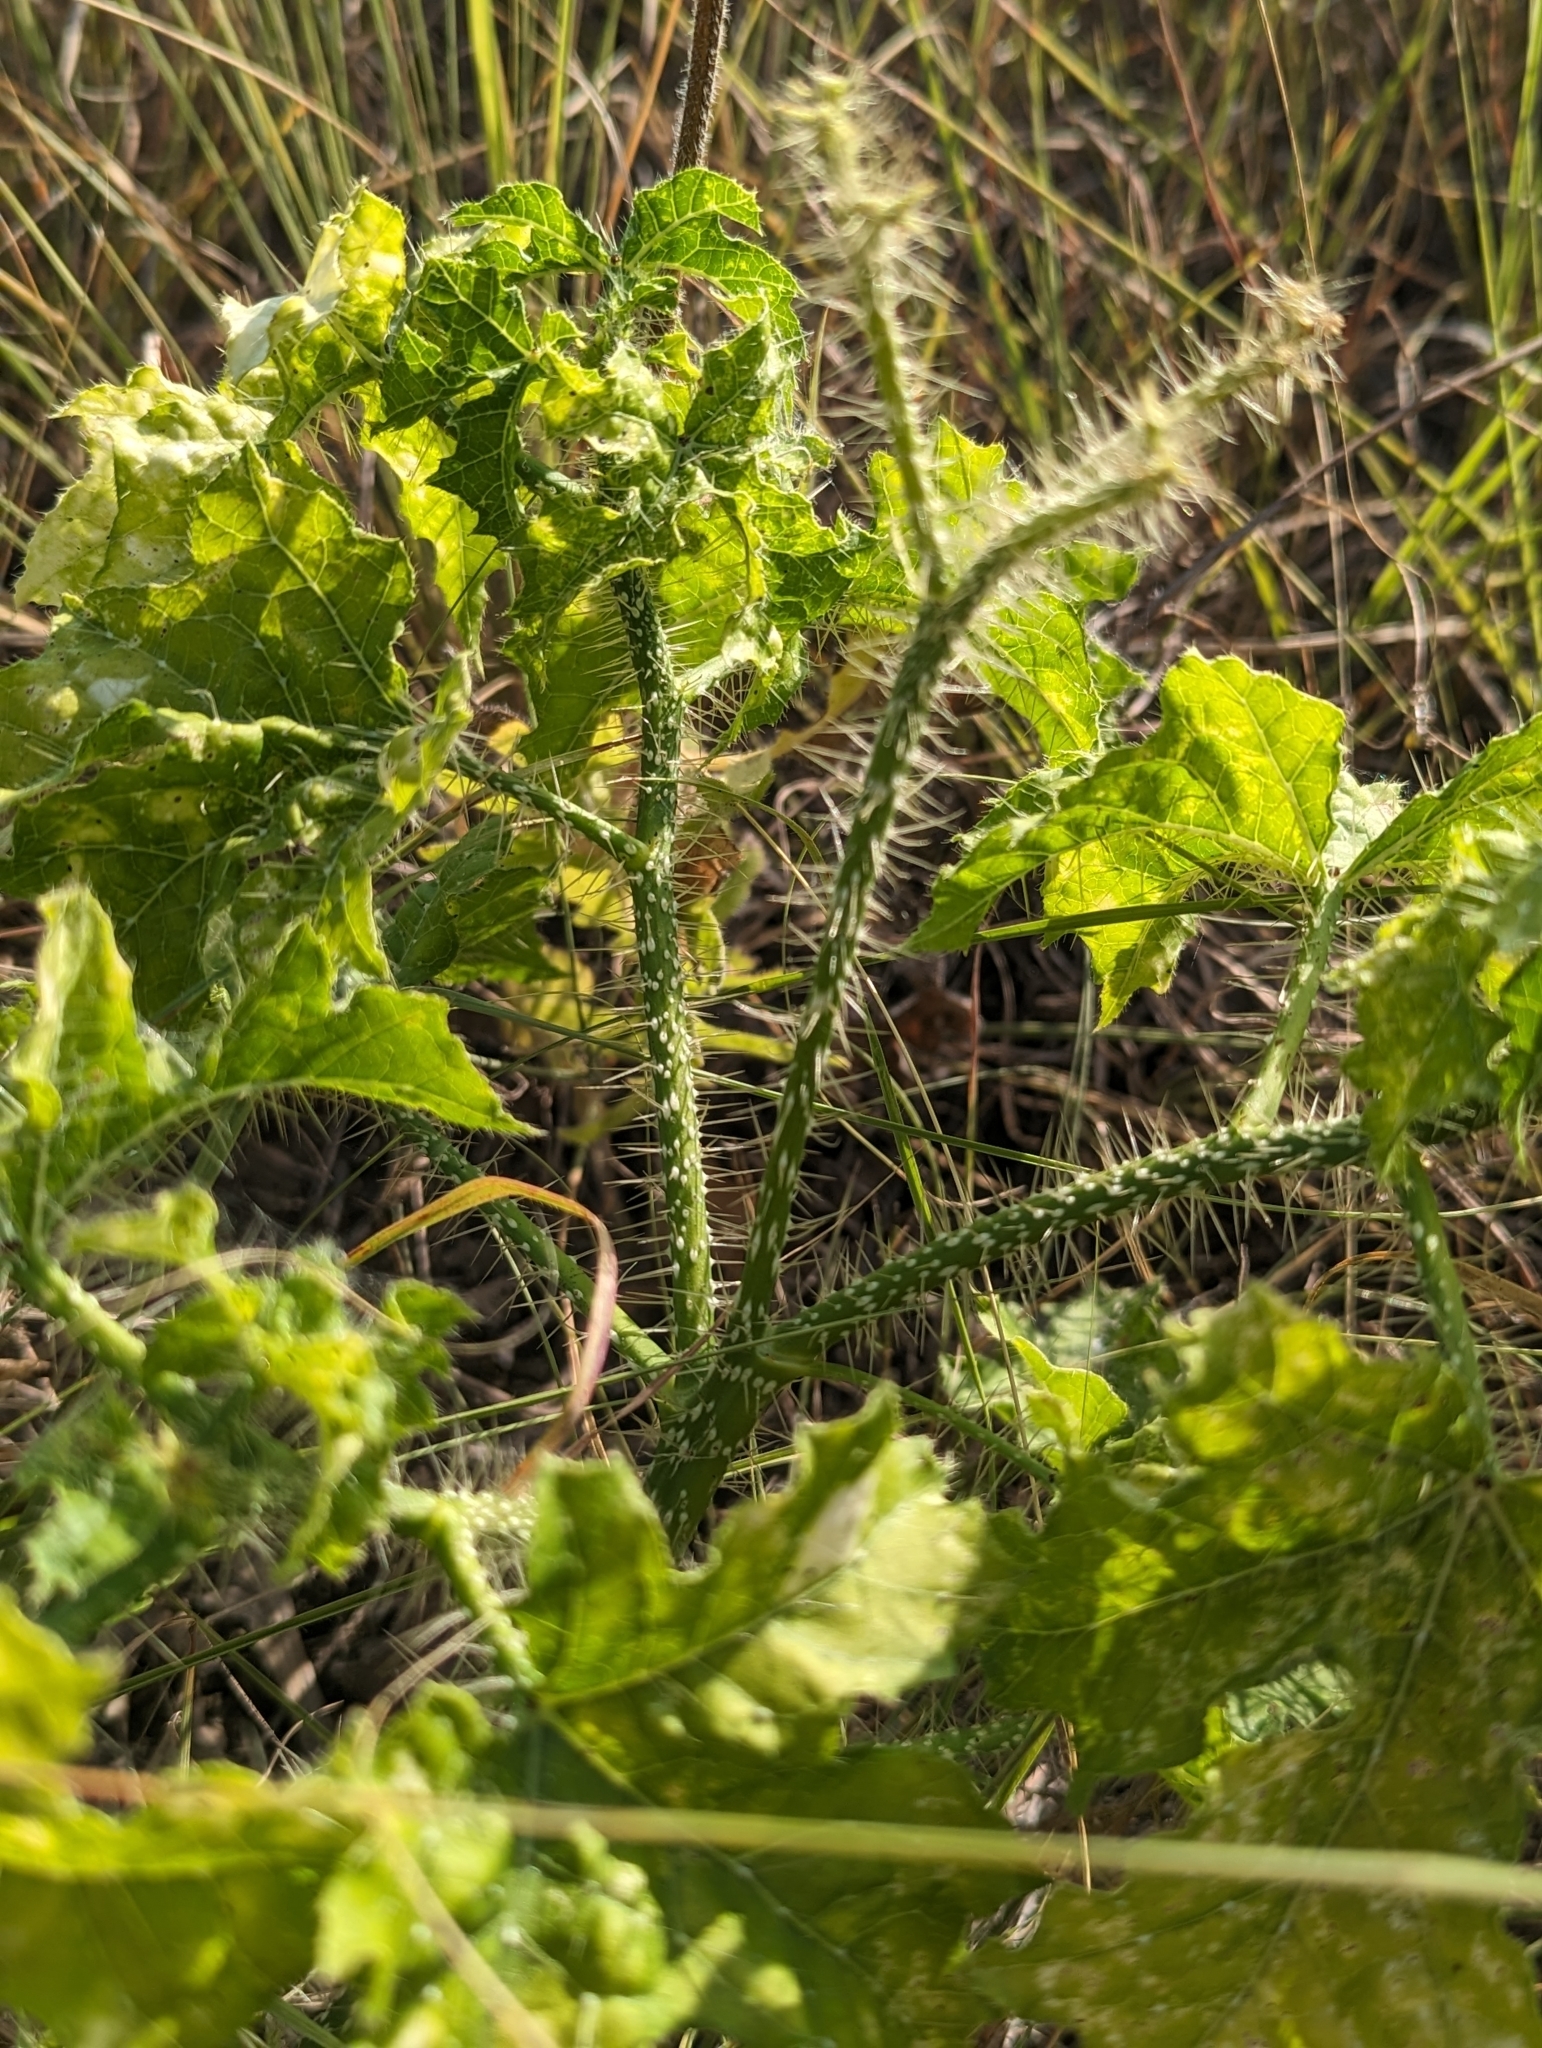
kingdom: Plantae
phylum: Tracheophyta
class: Magnoliopsida
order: Malpighiales
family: Euphorbiaceae
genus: Cnidoscolus
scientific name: Cnidoscolus texanus
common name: Texas bull-nettle
